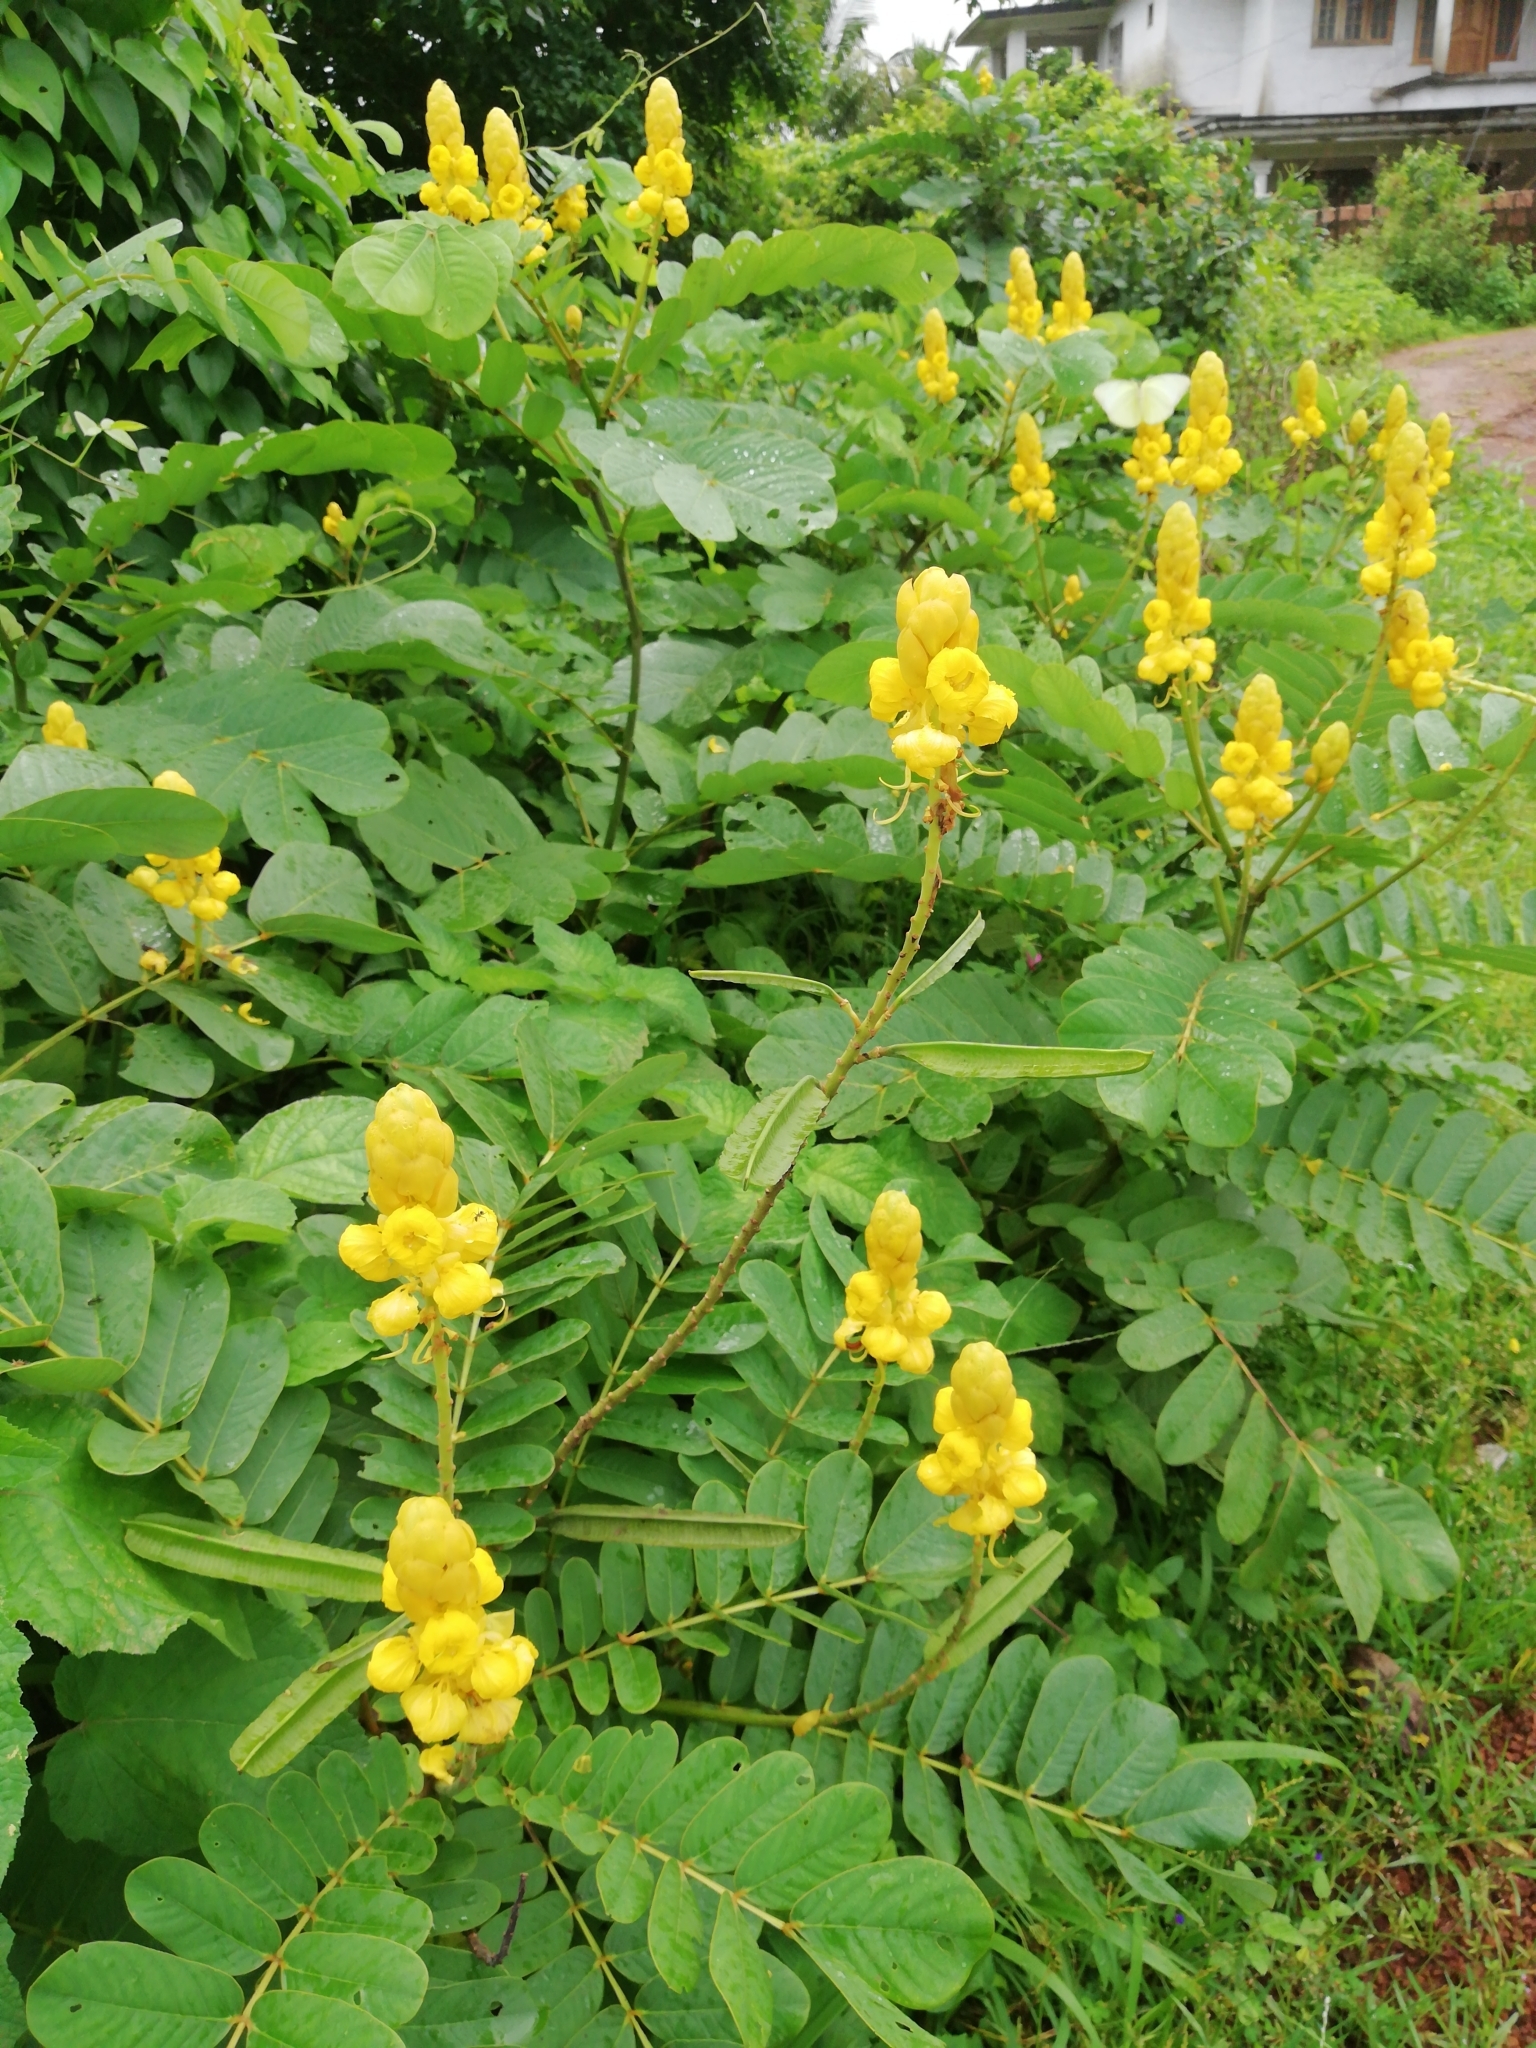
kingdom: Plantae
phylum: Tracheophyta
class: Magnoliopsida
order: Fabales
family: Fabaceae
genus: Senna
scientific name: Senna alata
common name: Emperor's candlesticks
